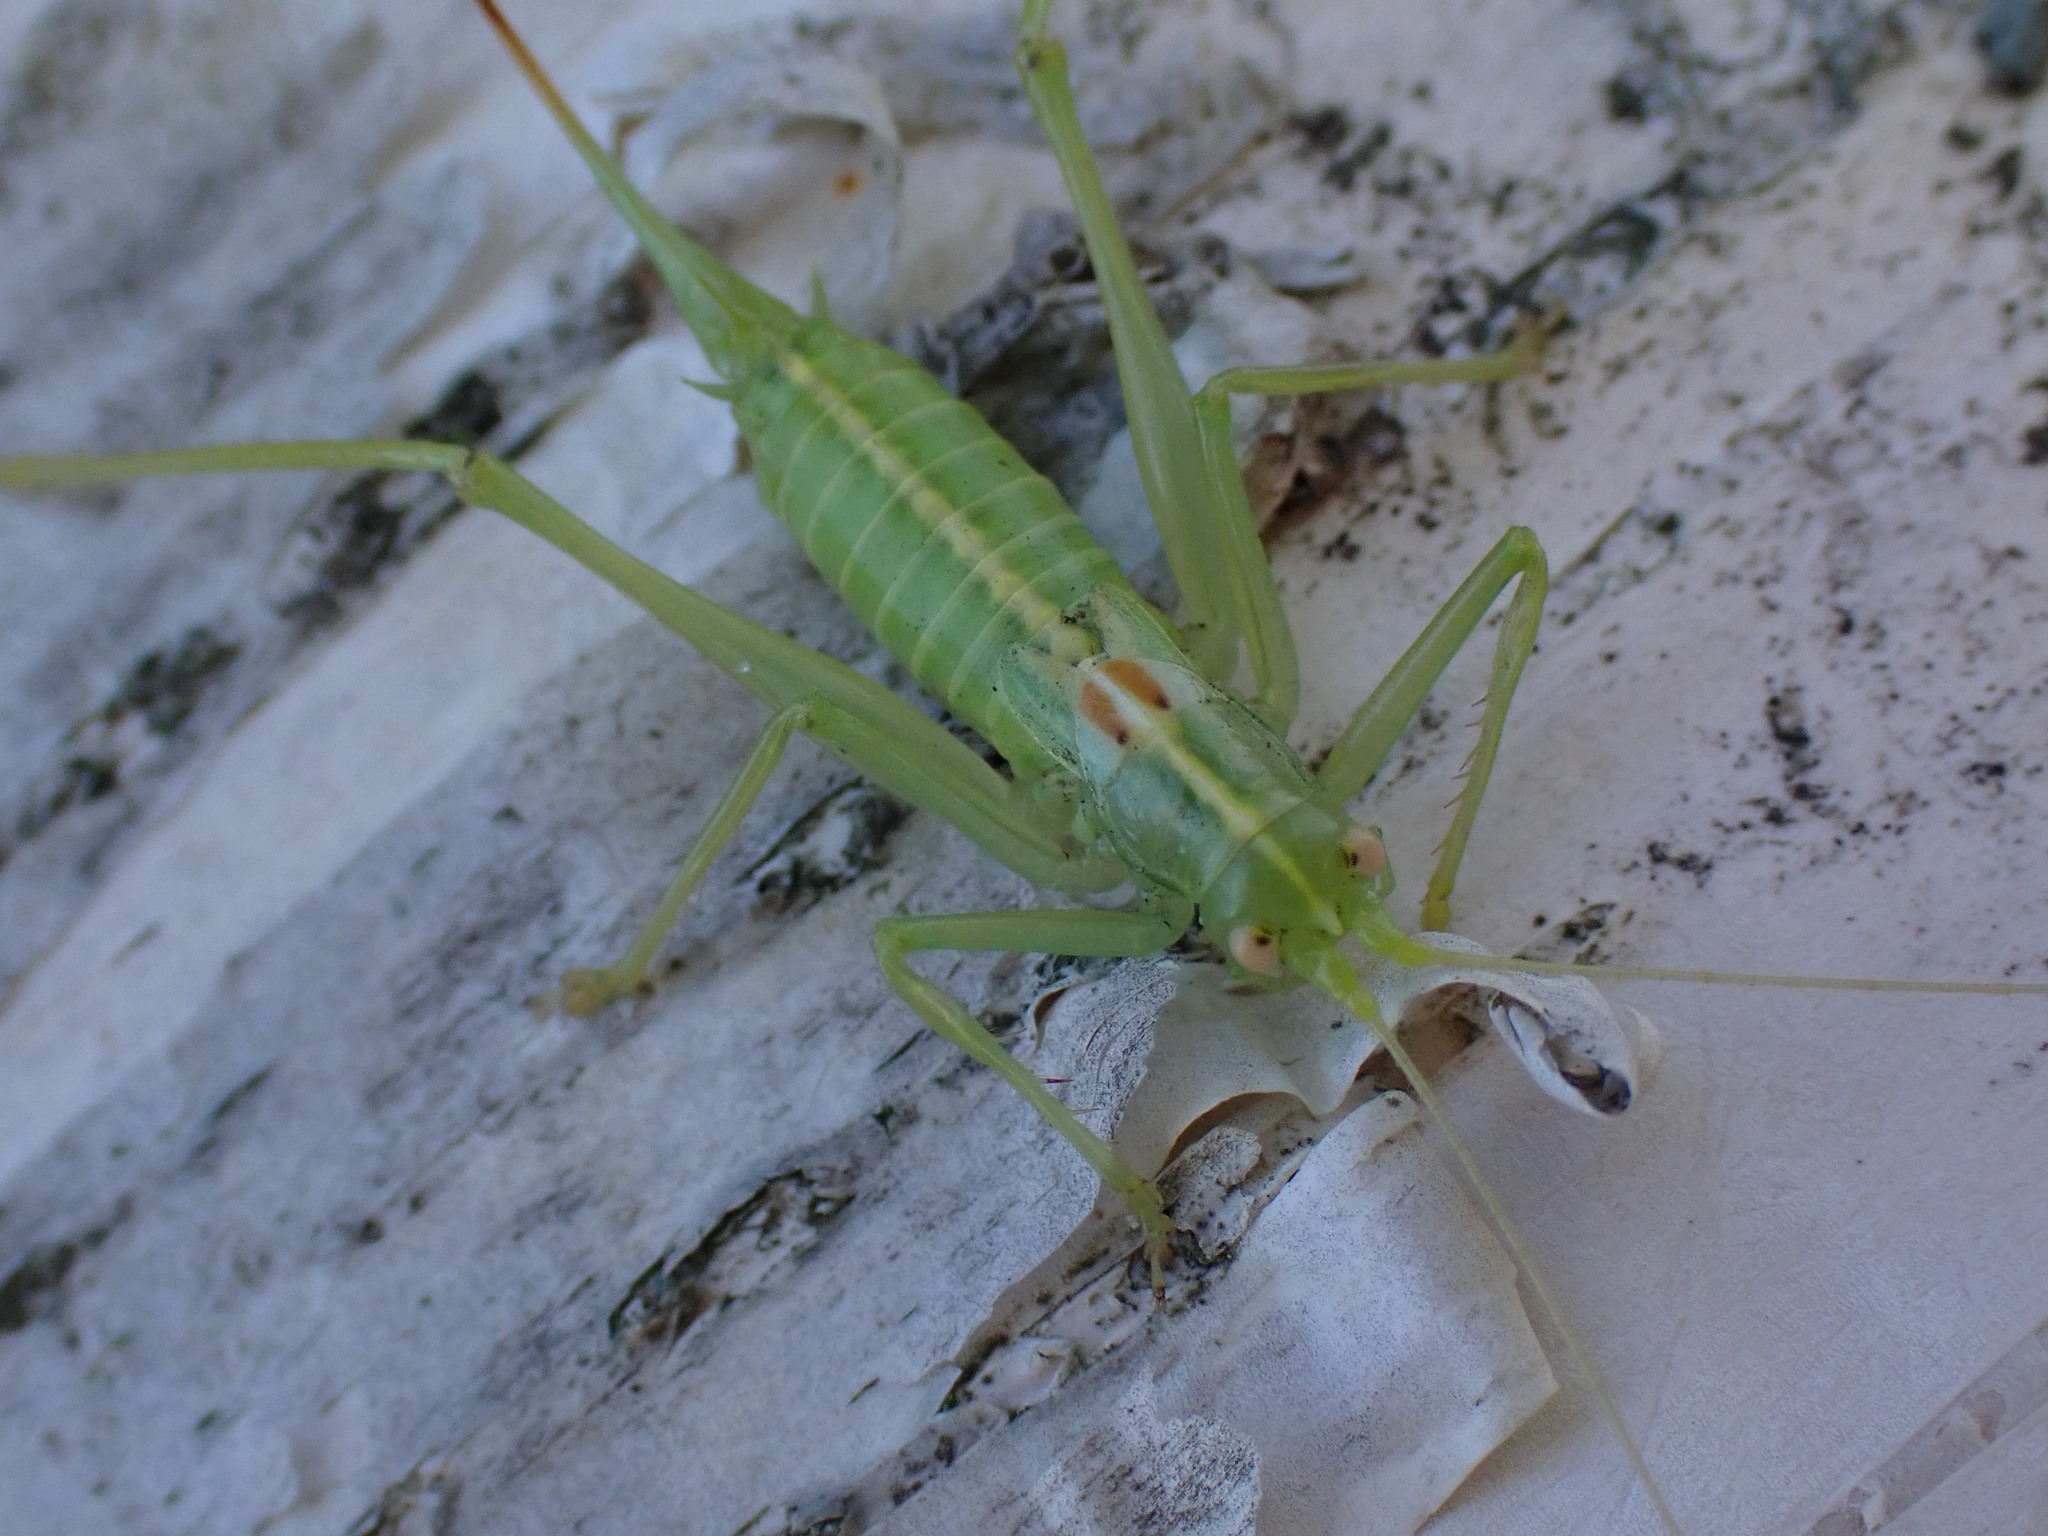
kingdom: Animalia
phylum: Arthropoda
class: Insecta
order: Orthoptera
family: Tettigoniidae
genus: Meconema
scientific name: Meconema meridionale
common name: Southern oak bush-cricket
